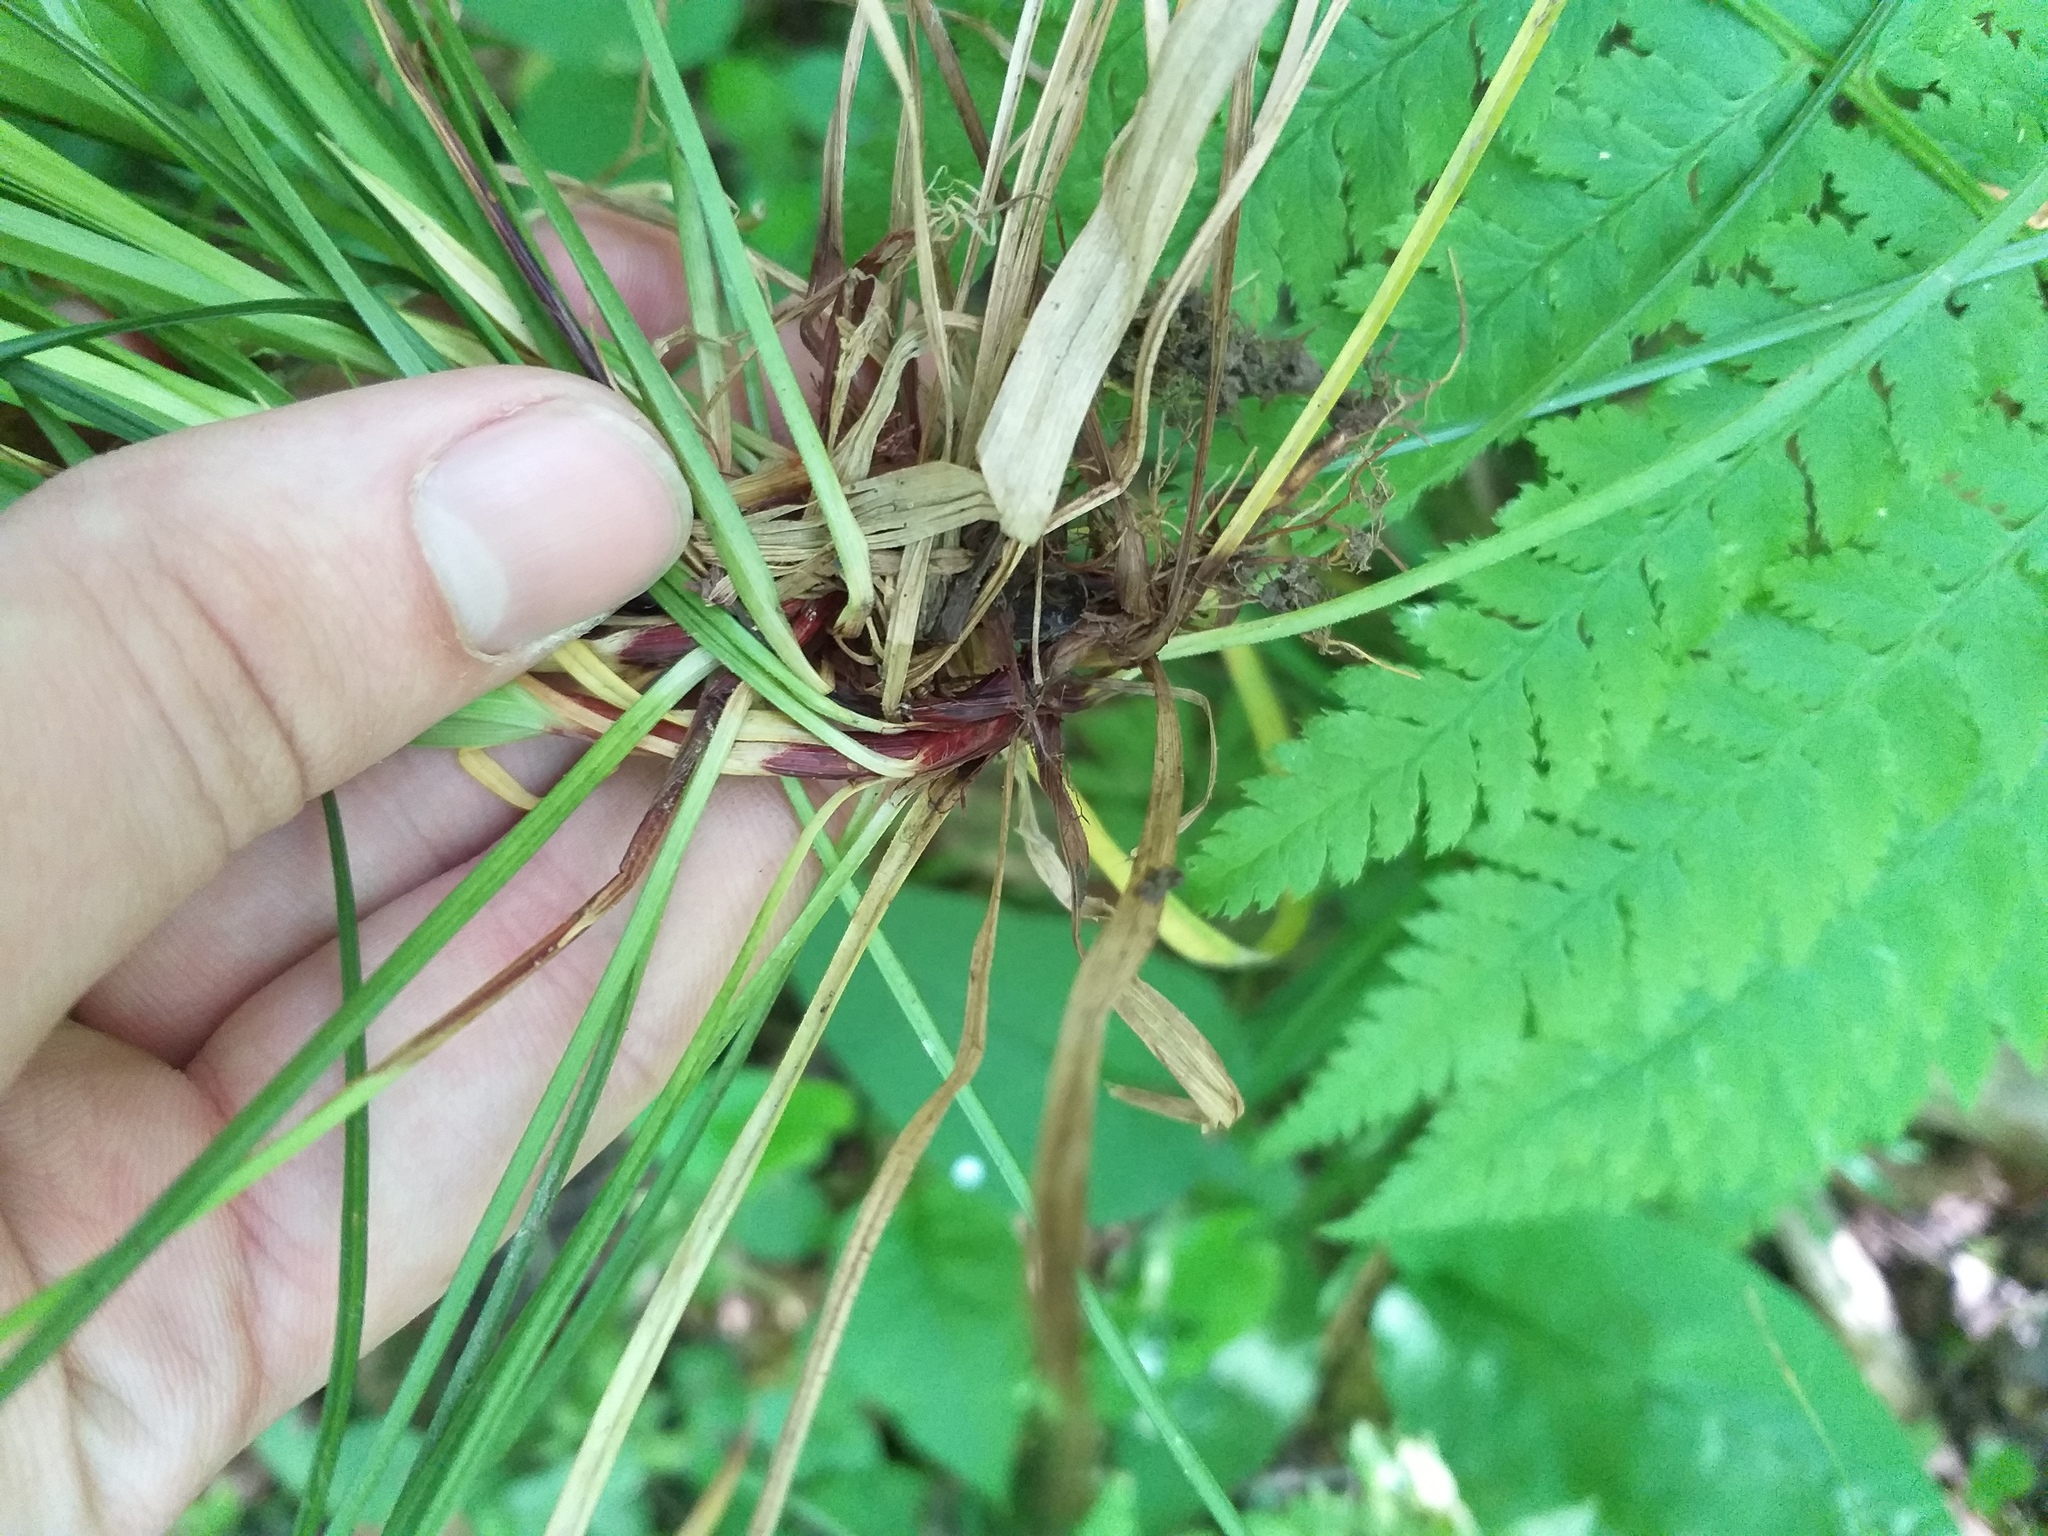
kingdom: Plantae
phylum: Tracheophyta
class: Liliopsida
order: Poales
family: Cyperaceae
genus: Carex
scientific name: Carex digitata
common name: Fingered sedge
